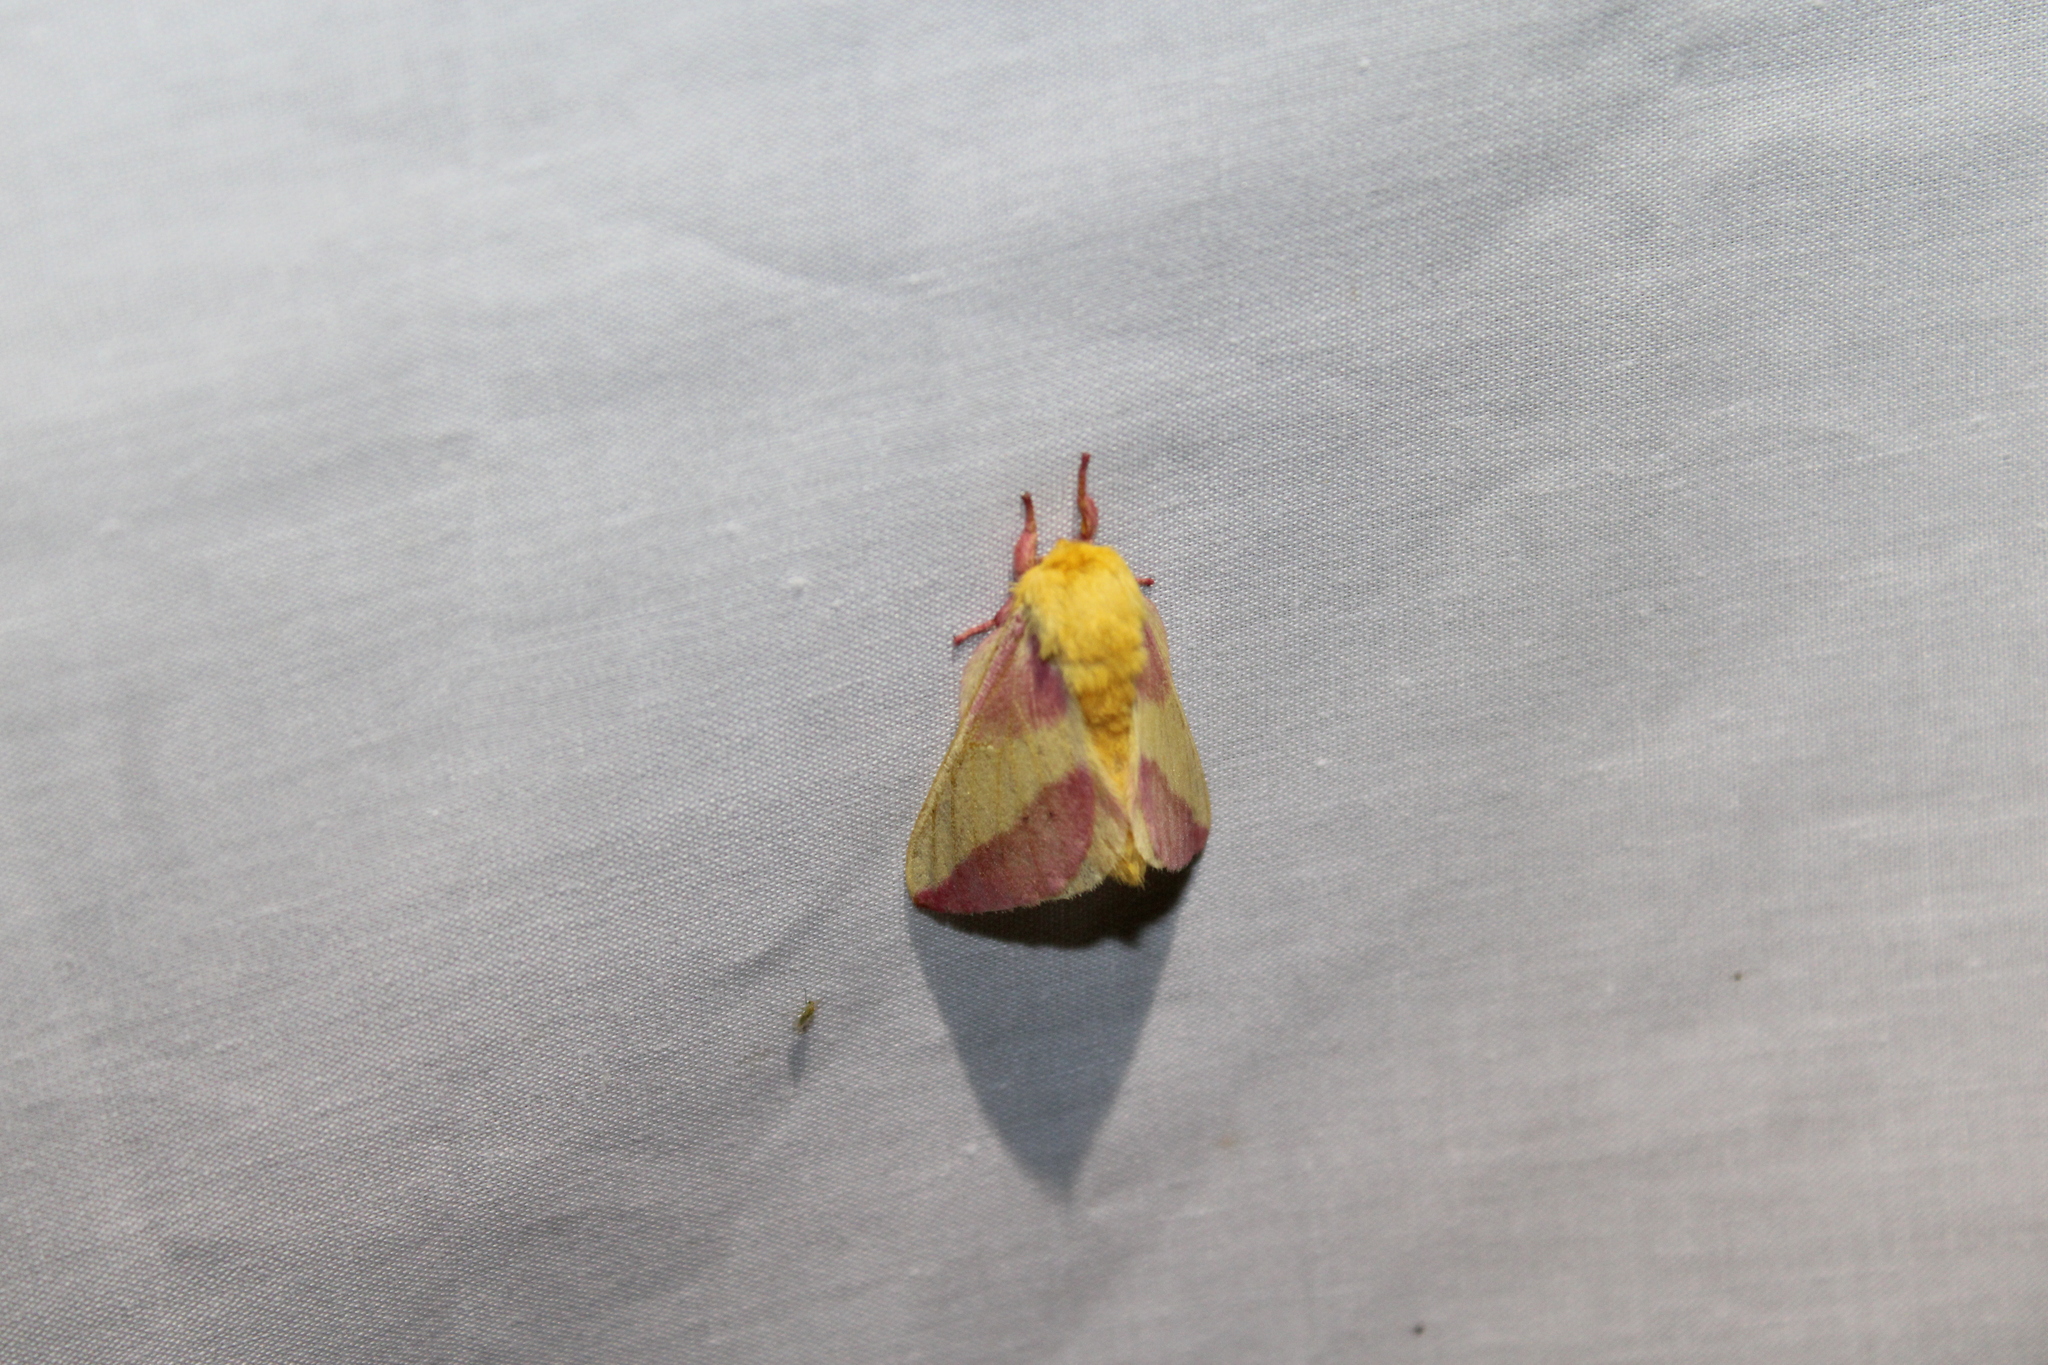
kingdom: Animalia
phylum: Arthropoda
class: Insecta
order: Lepidoptera
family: Saturniidae
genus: Dryocampa
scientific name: Dryocampa rubicunda
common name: Rosy maple moth
